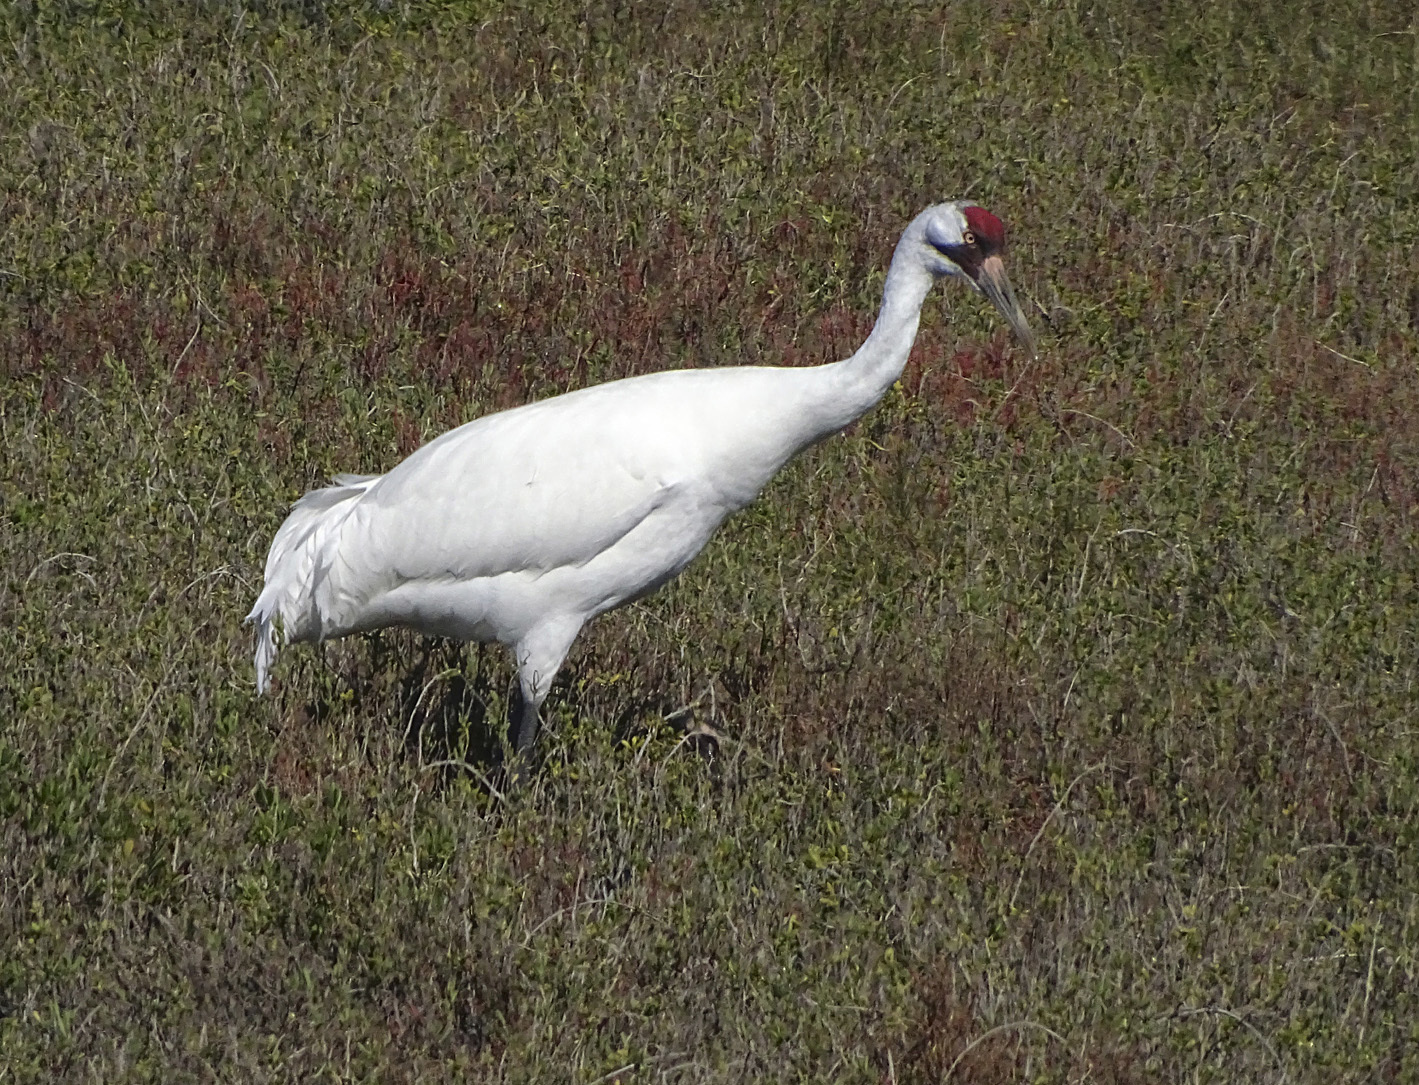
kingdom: Animalia
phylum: Chordata
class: Aves
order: Gruiformes
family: Gruidae
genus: Grus
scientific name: Grus americana
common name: Whooping crane
